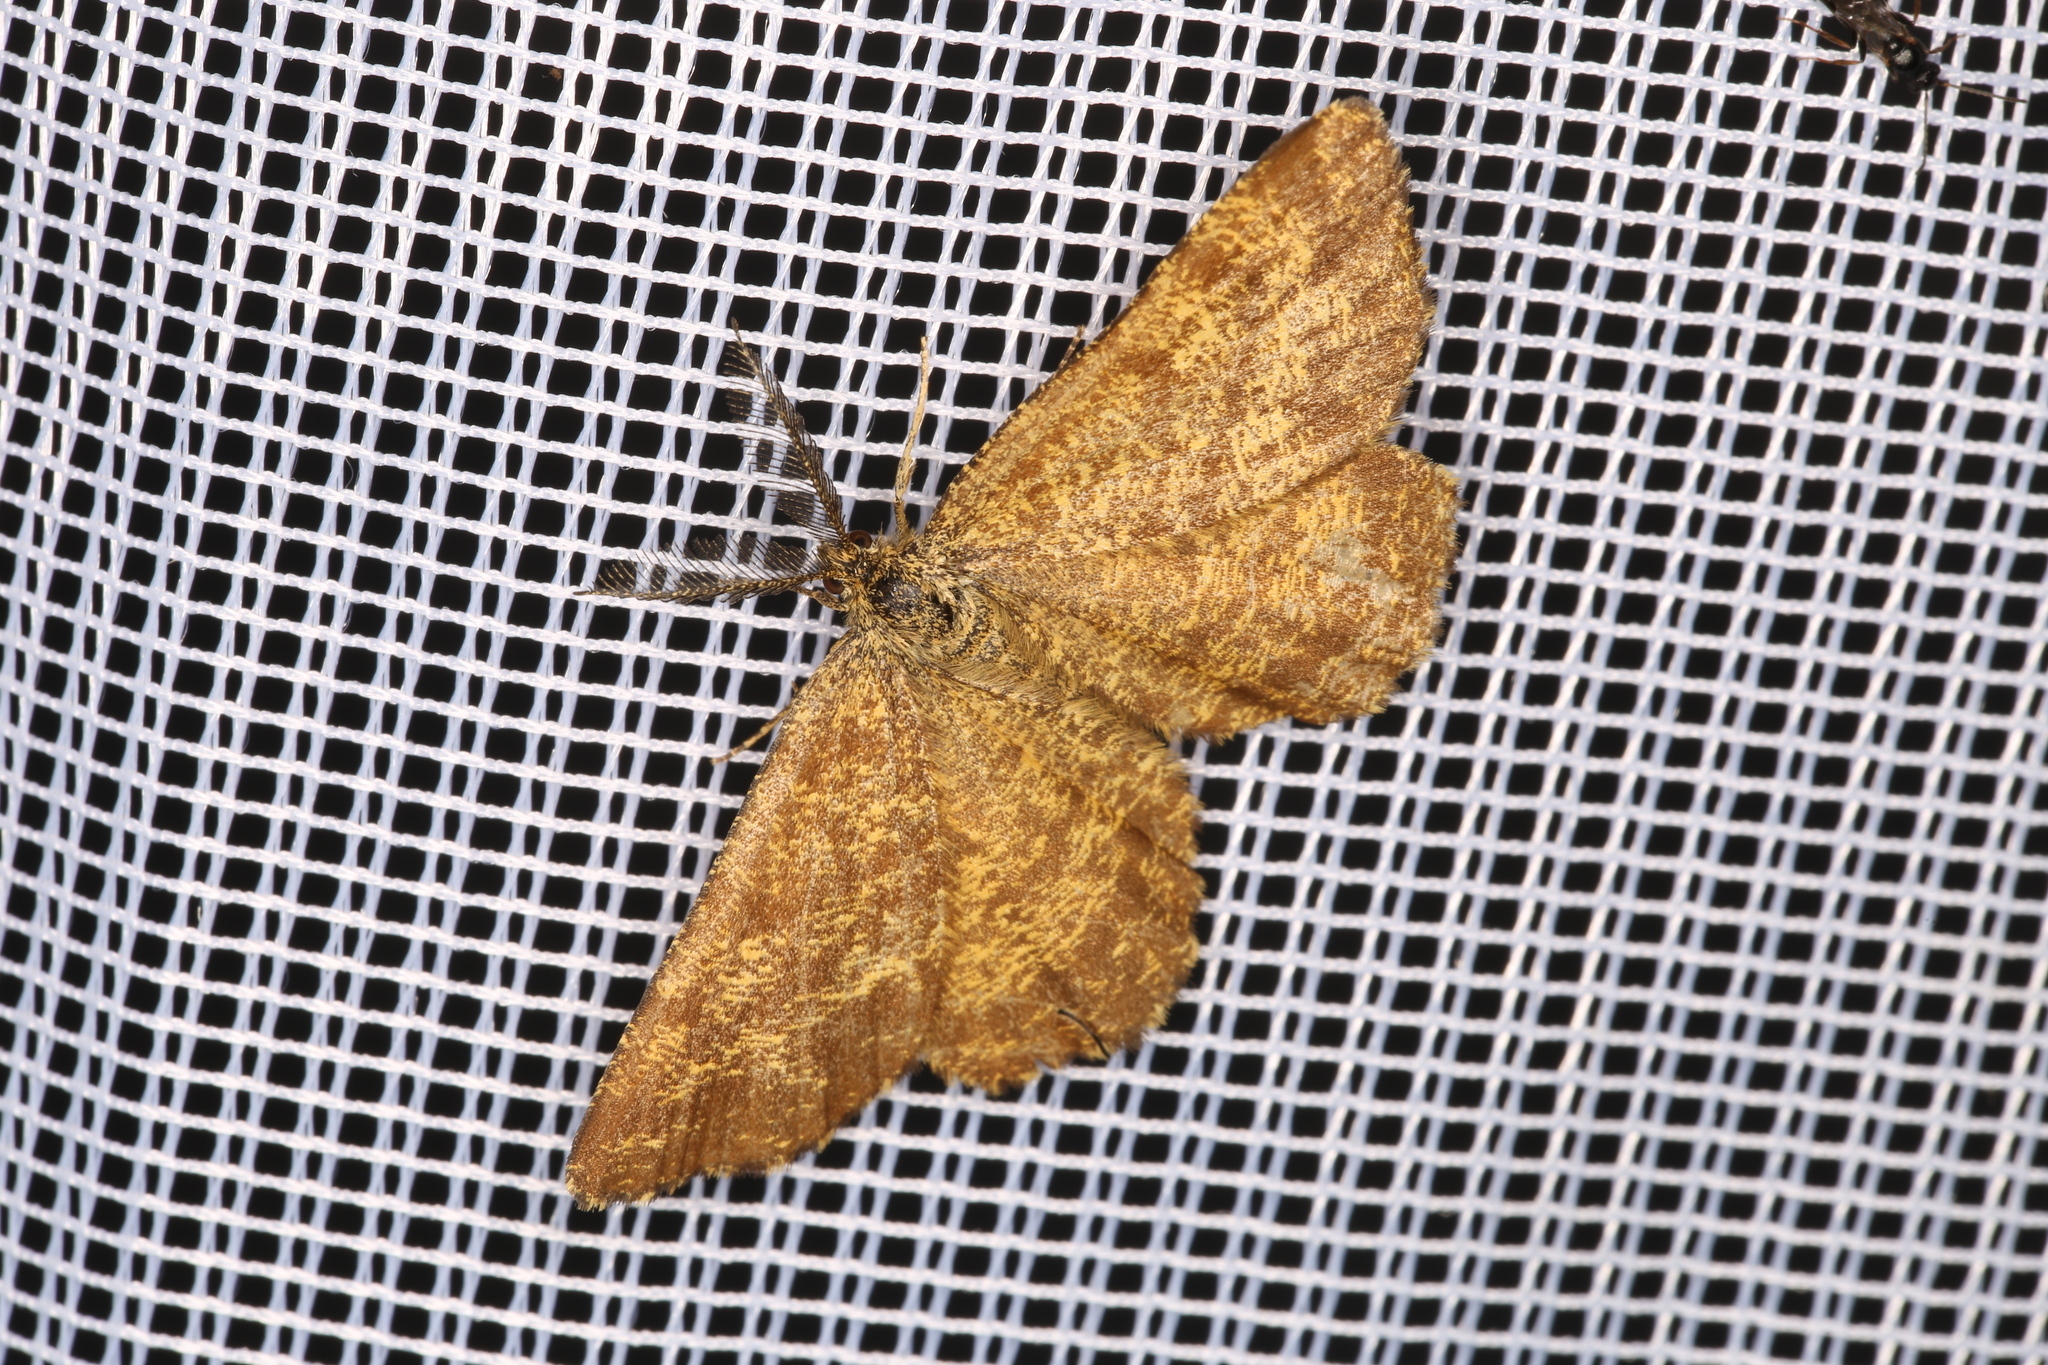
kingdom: Animalia
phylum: Arthropoda
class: Insecta
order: Lepidoptera
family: Geometridae
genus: Ematurga
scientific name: Ematurga atomaria
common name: Common heath
